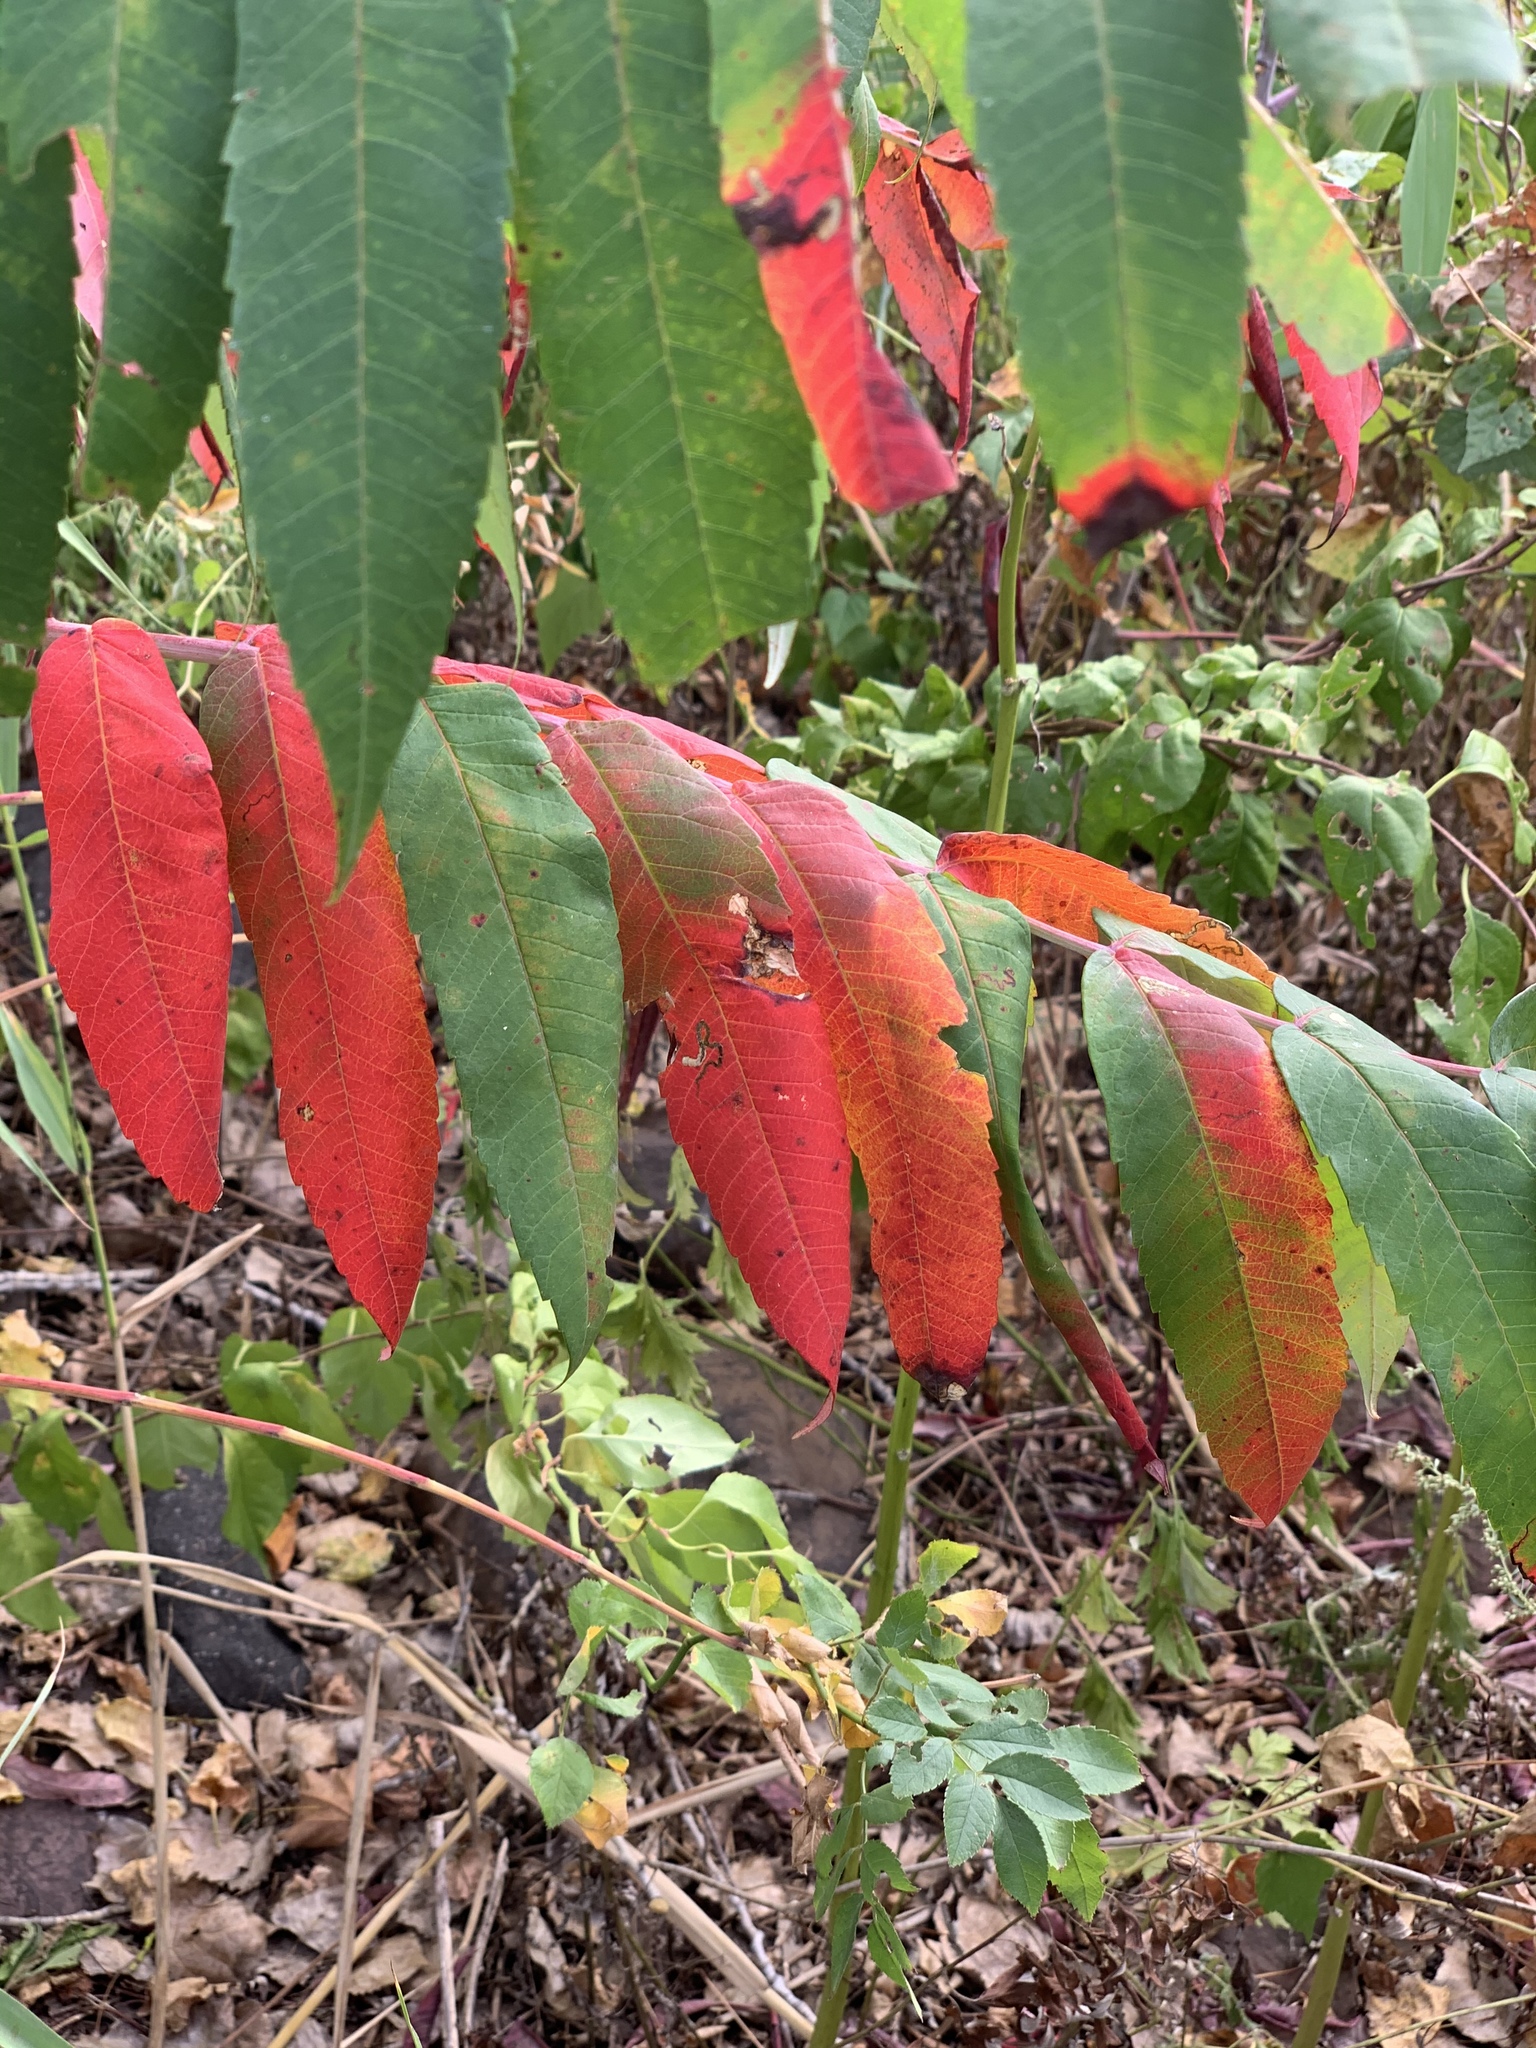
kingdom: Plantae
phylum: Tracheophyta
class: Magnoliopsida
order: Sapindales
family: Anacardiaceae
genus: Rhus
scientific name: Rhus glabra
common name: Scarlet sumac
